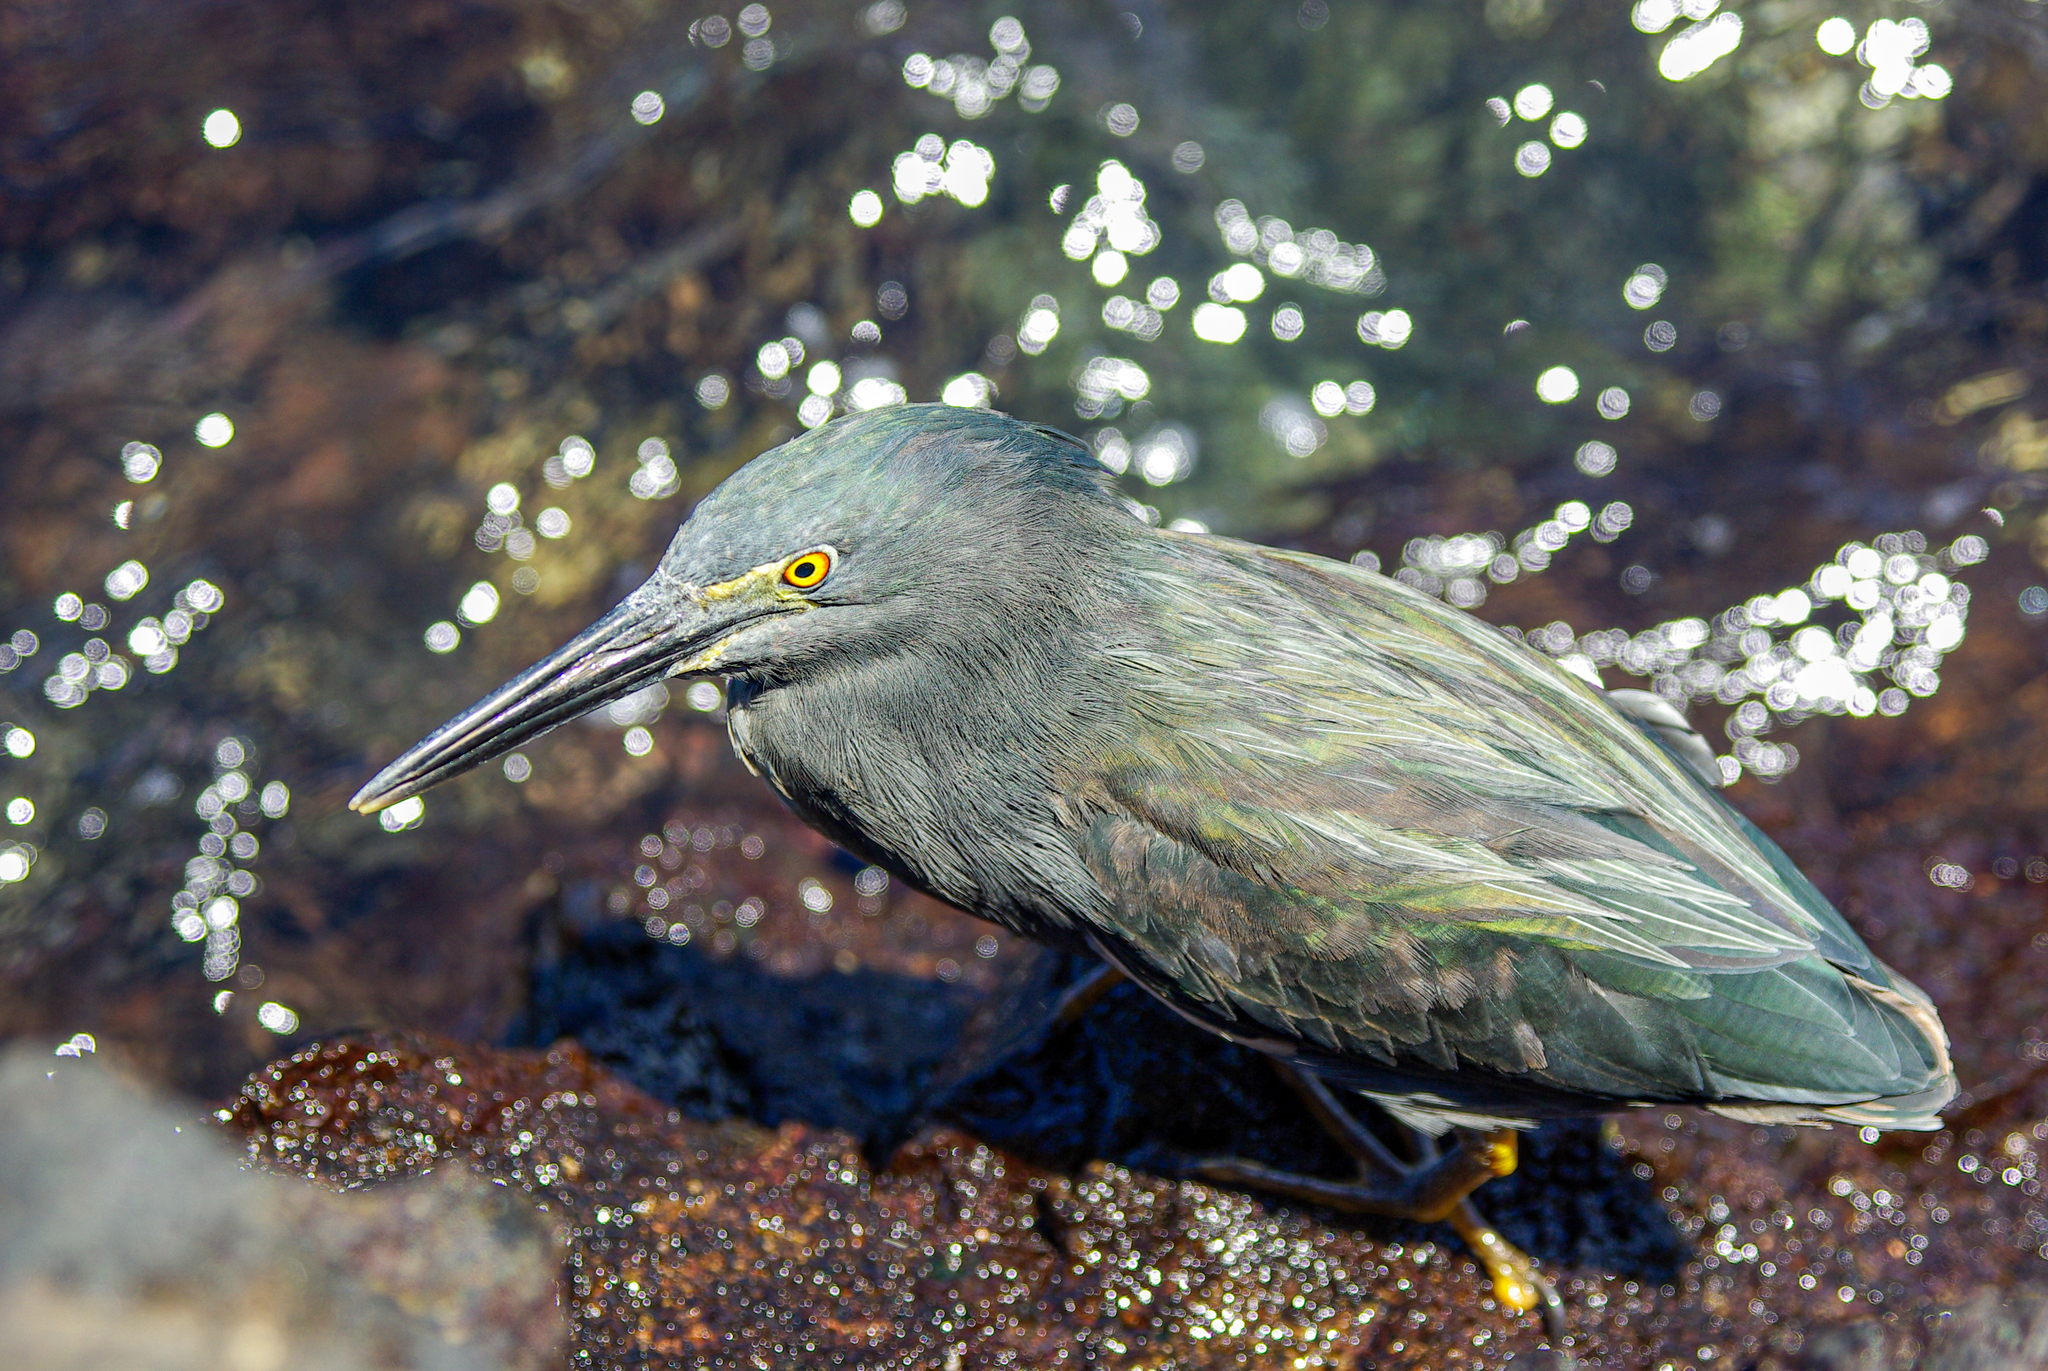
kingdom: Animalia
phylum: Chordata
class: Aves
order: Pelecaniformes
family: Ardeidae
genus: Butorides
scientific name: Butorides striata
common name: Striated heron
